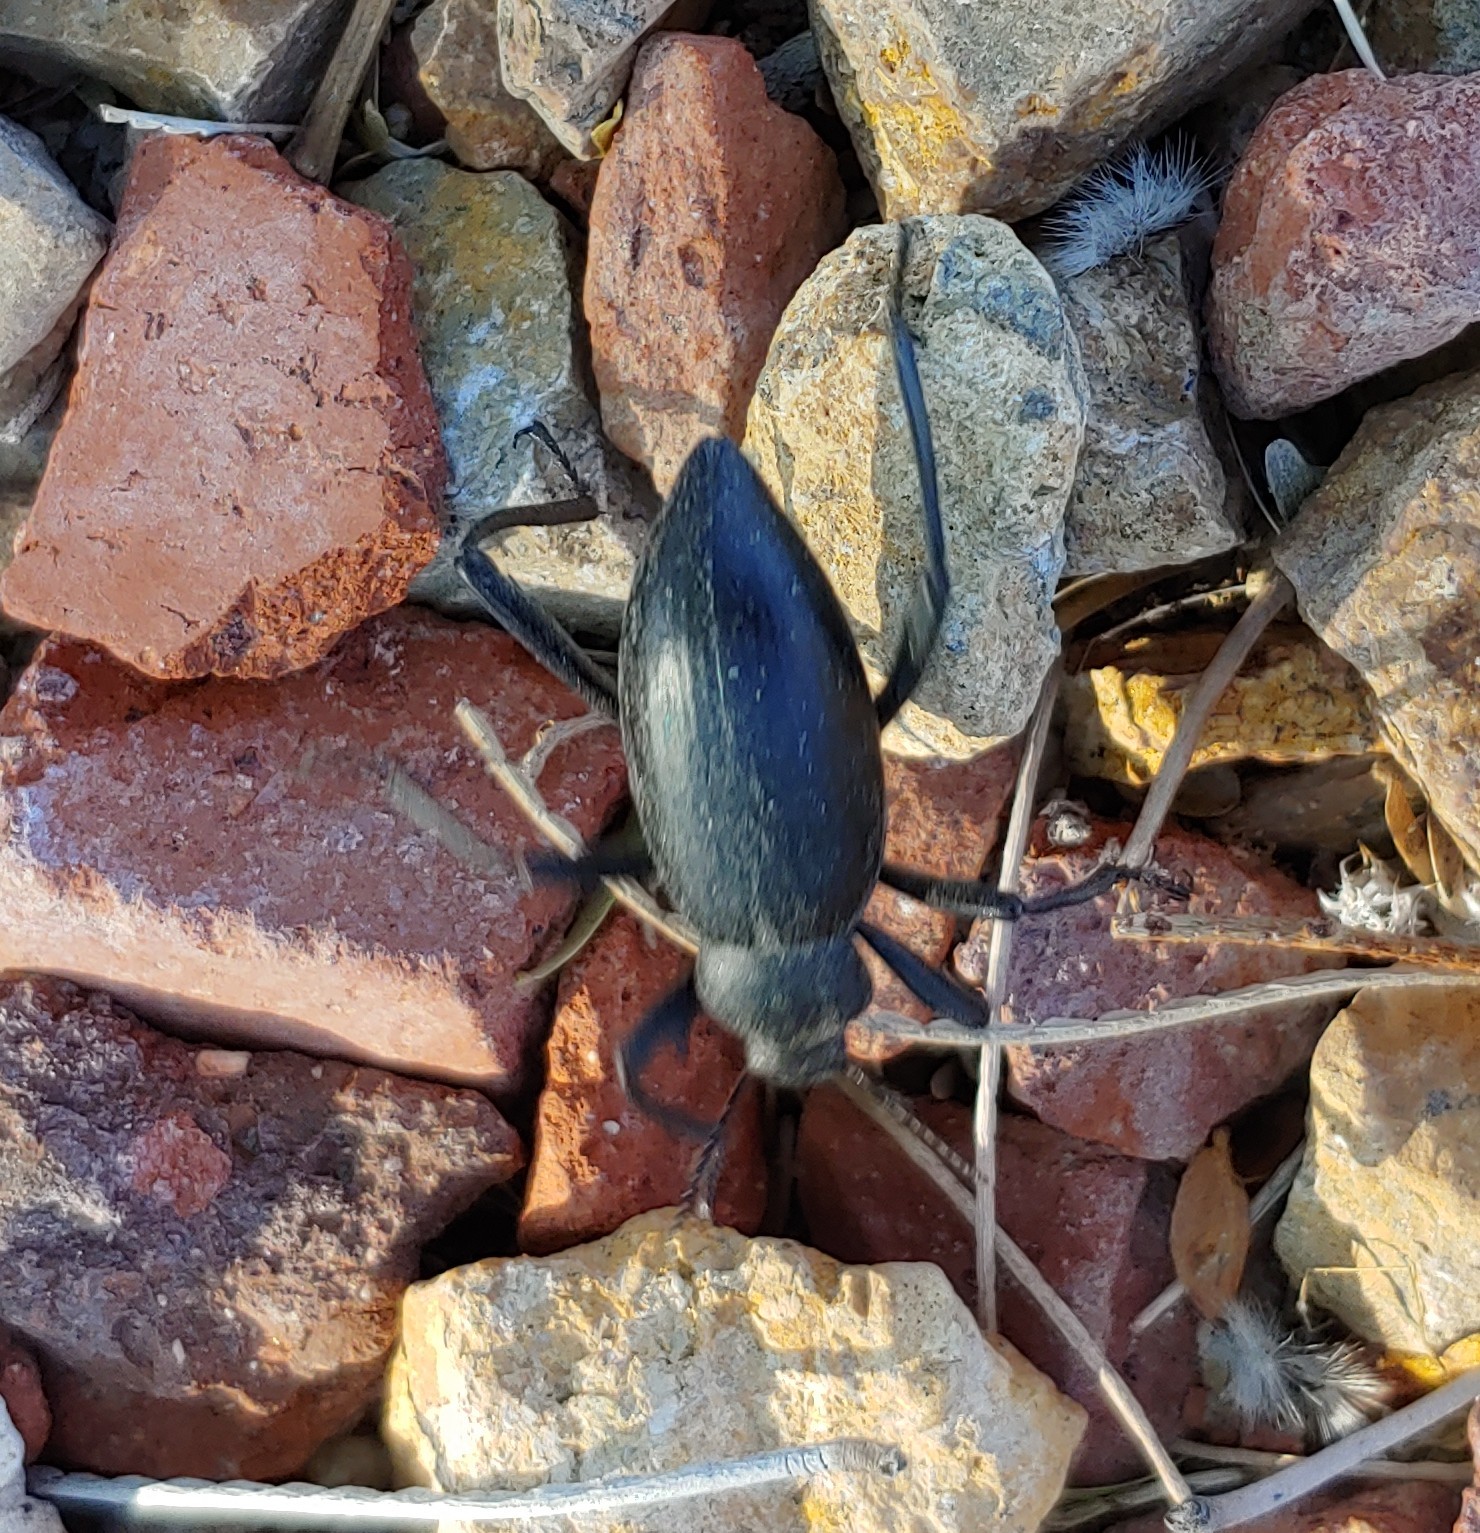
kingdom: Animalia
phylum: Arthropoda
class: Insecta
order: Coleoptera
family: Tenebrionidae
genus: Eleodes
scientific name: Eleodes armata
